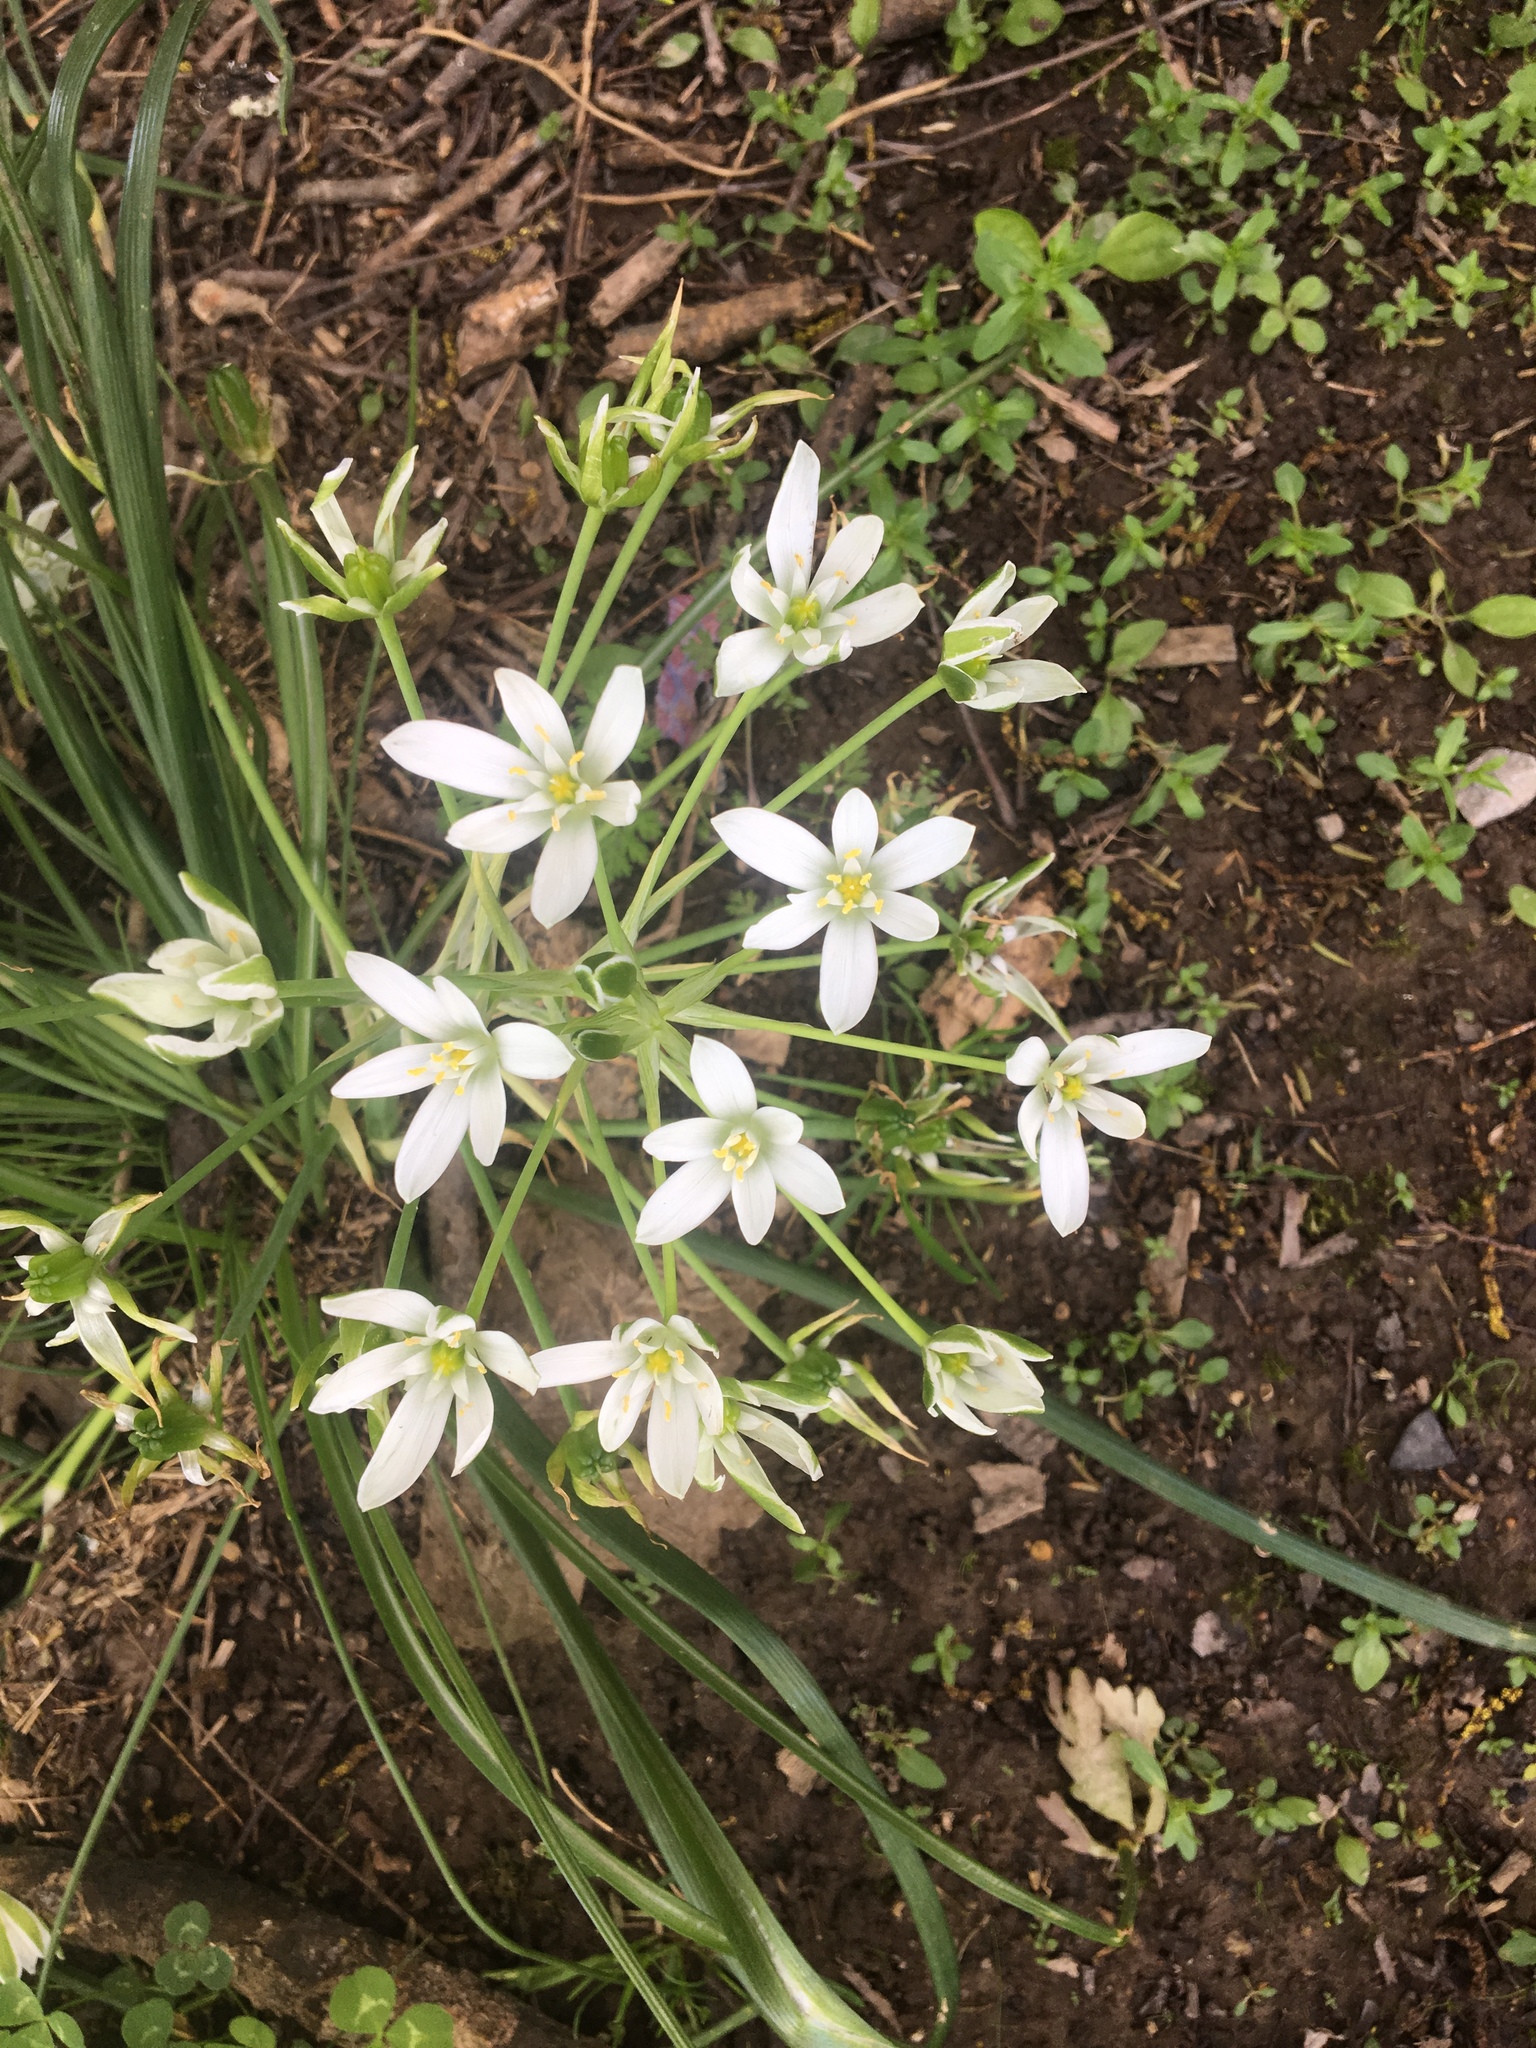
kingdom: Plantae
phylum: Tracheophyta
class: Liliopsida
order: Asparagales
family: Asparagaceae
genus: Ornithogalum
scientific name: Ornithogalum umbellatum
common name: Garden star-of-bethlehem
